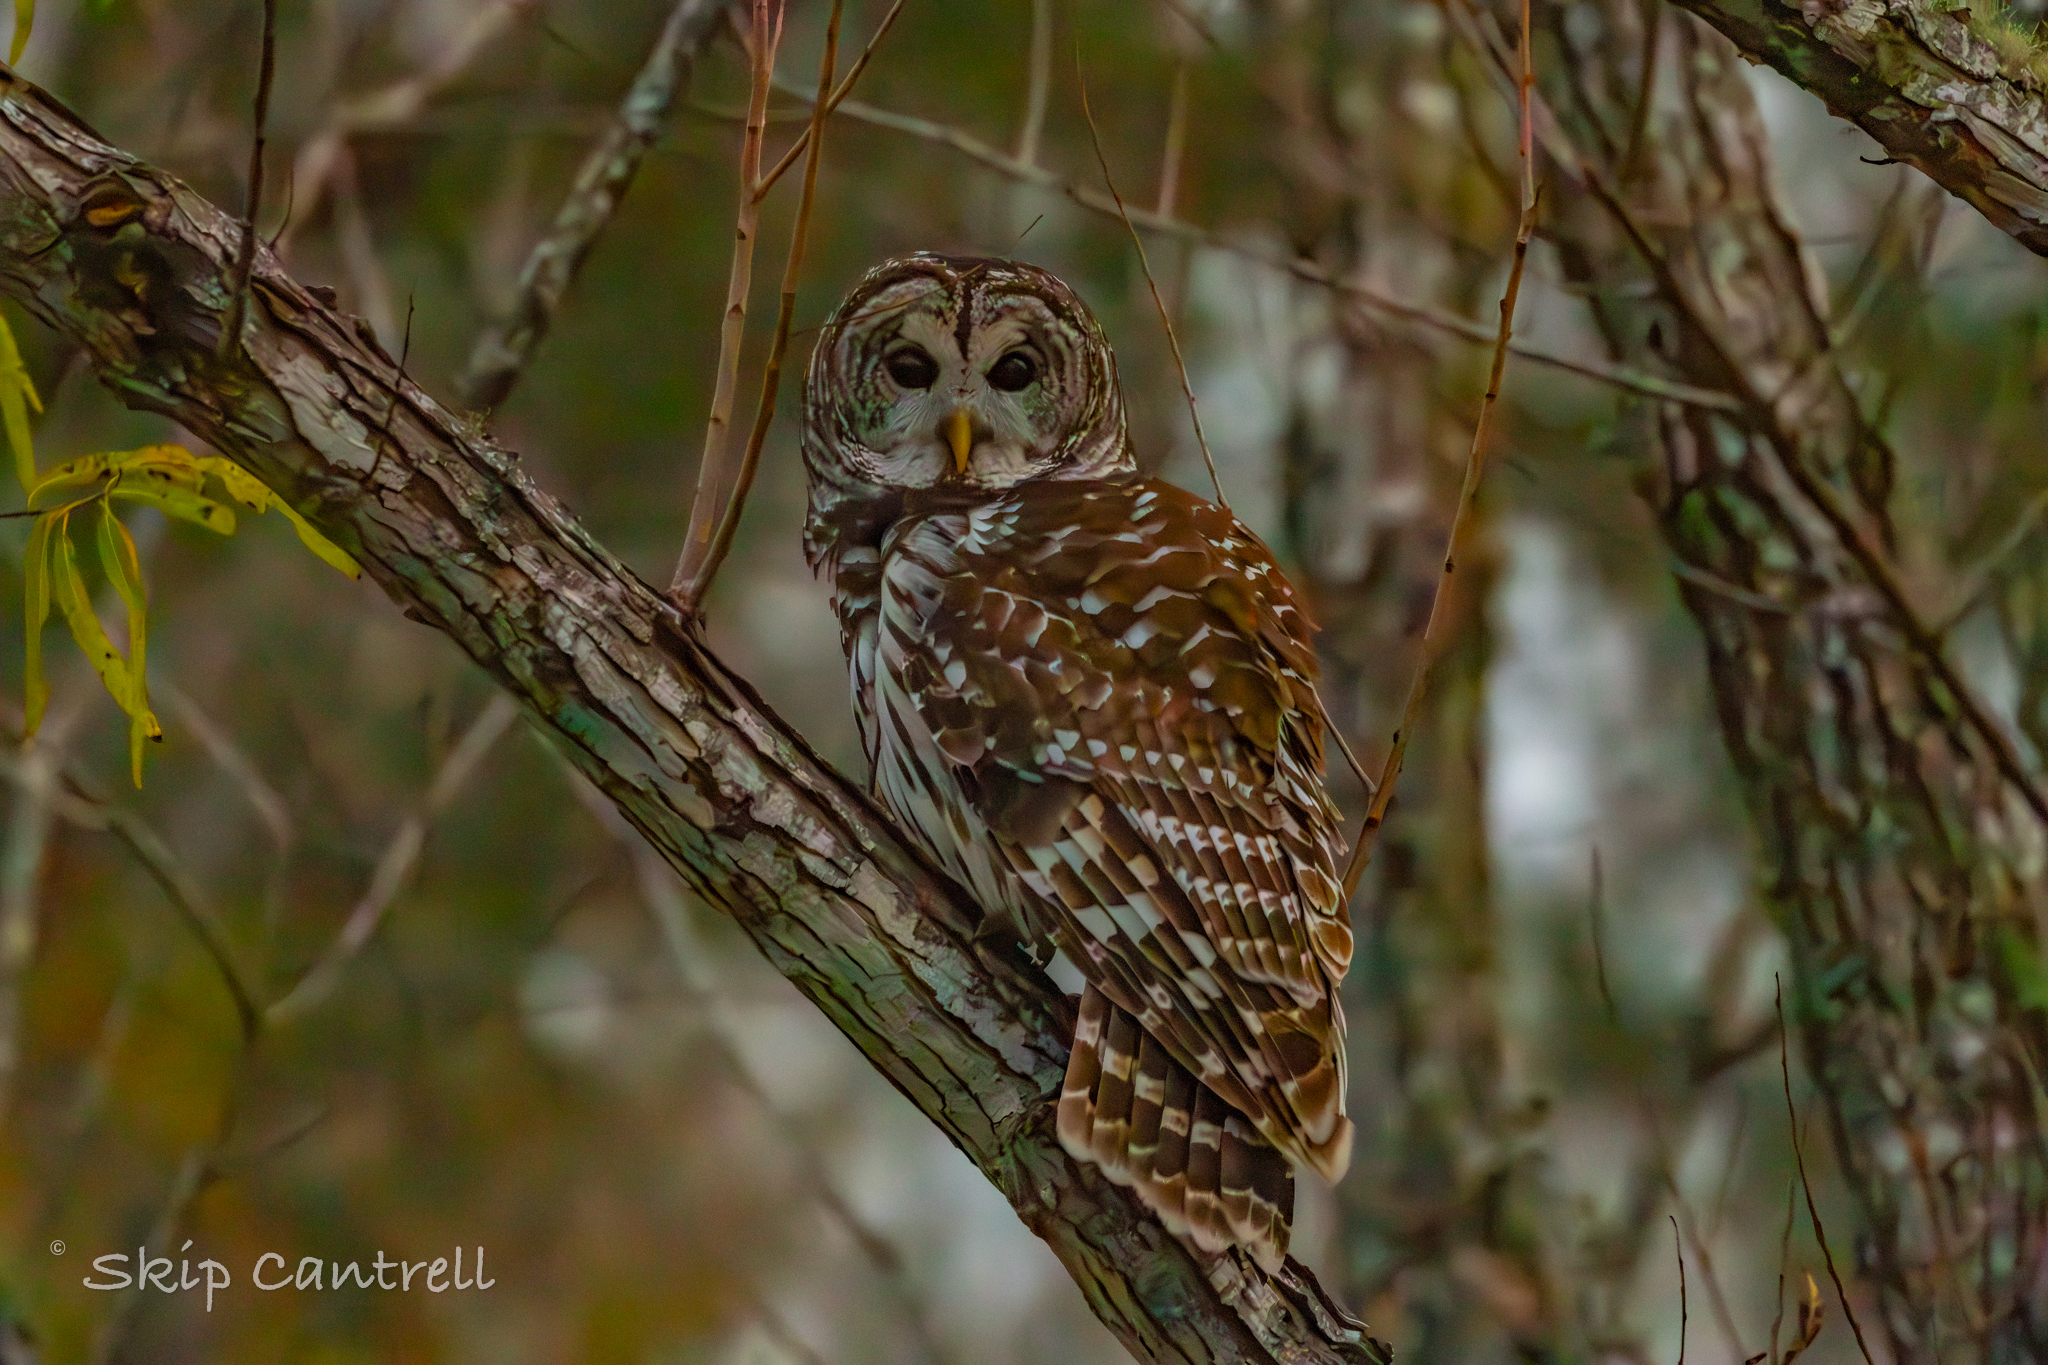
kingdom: Animalia
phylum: Chordata
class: Aves
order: Strigiformes
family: Strigidae
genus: Strix
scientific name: Strix varia
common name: Barred owl
